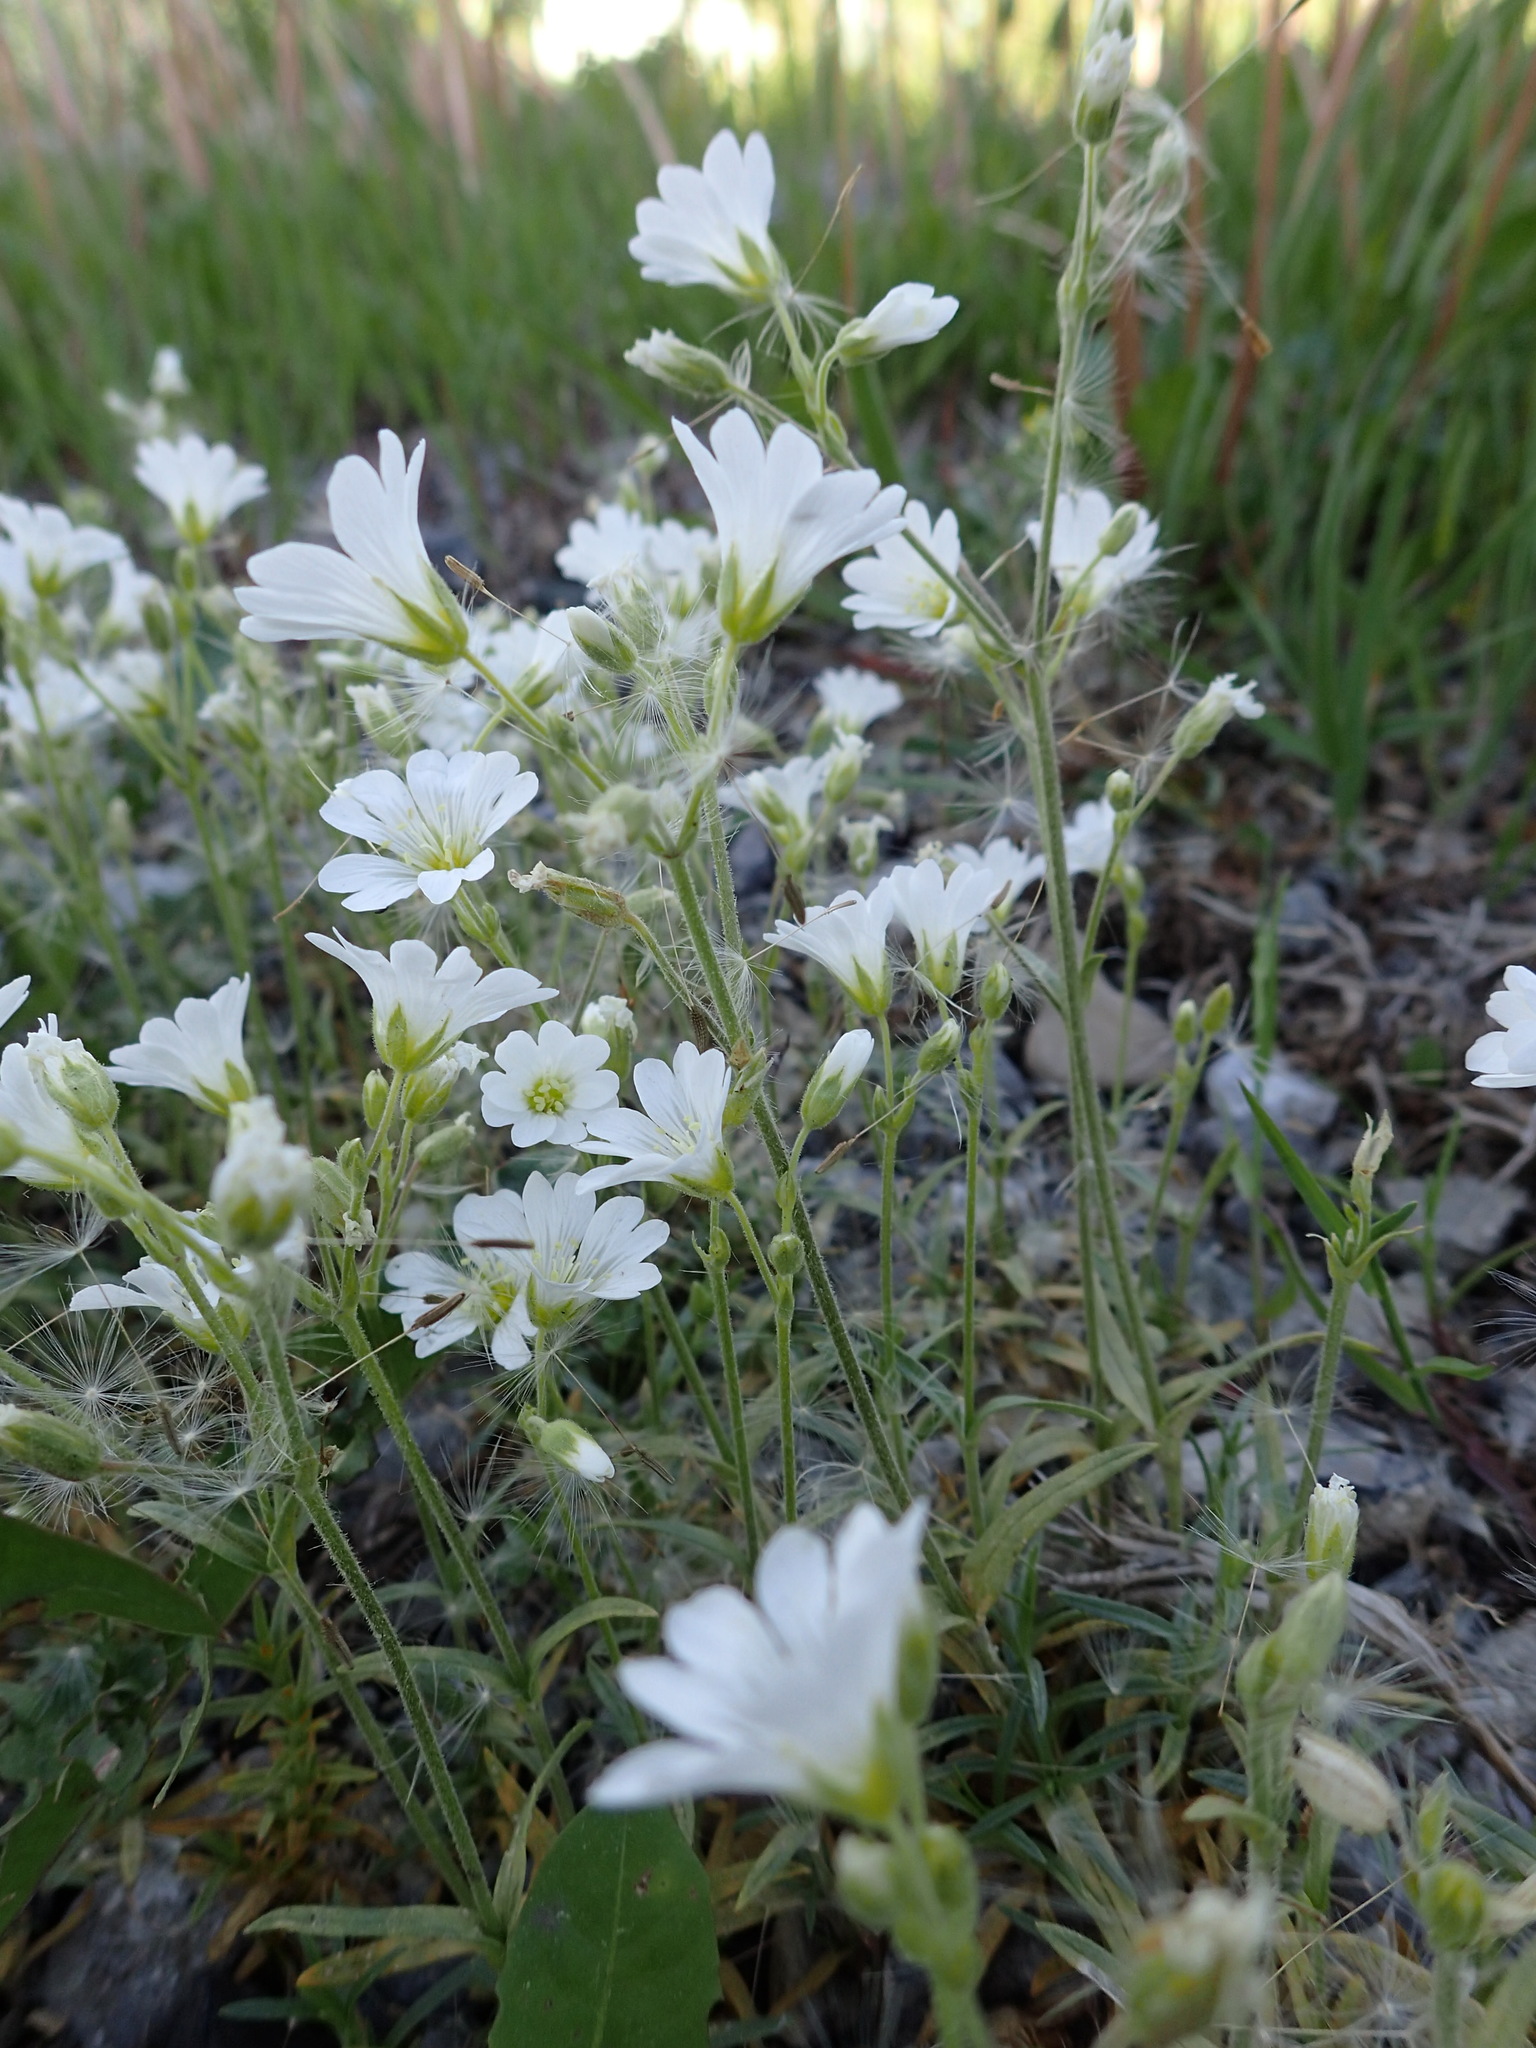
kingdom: Plantae
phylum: Tracheophyta
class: Magnoliopsida
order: Caryophyllales
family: Caryophyllaceae
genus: Cerastium
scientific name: Cerastium arvense
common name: Field mouse-ear
